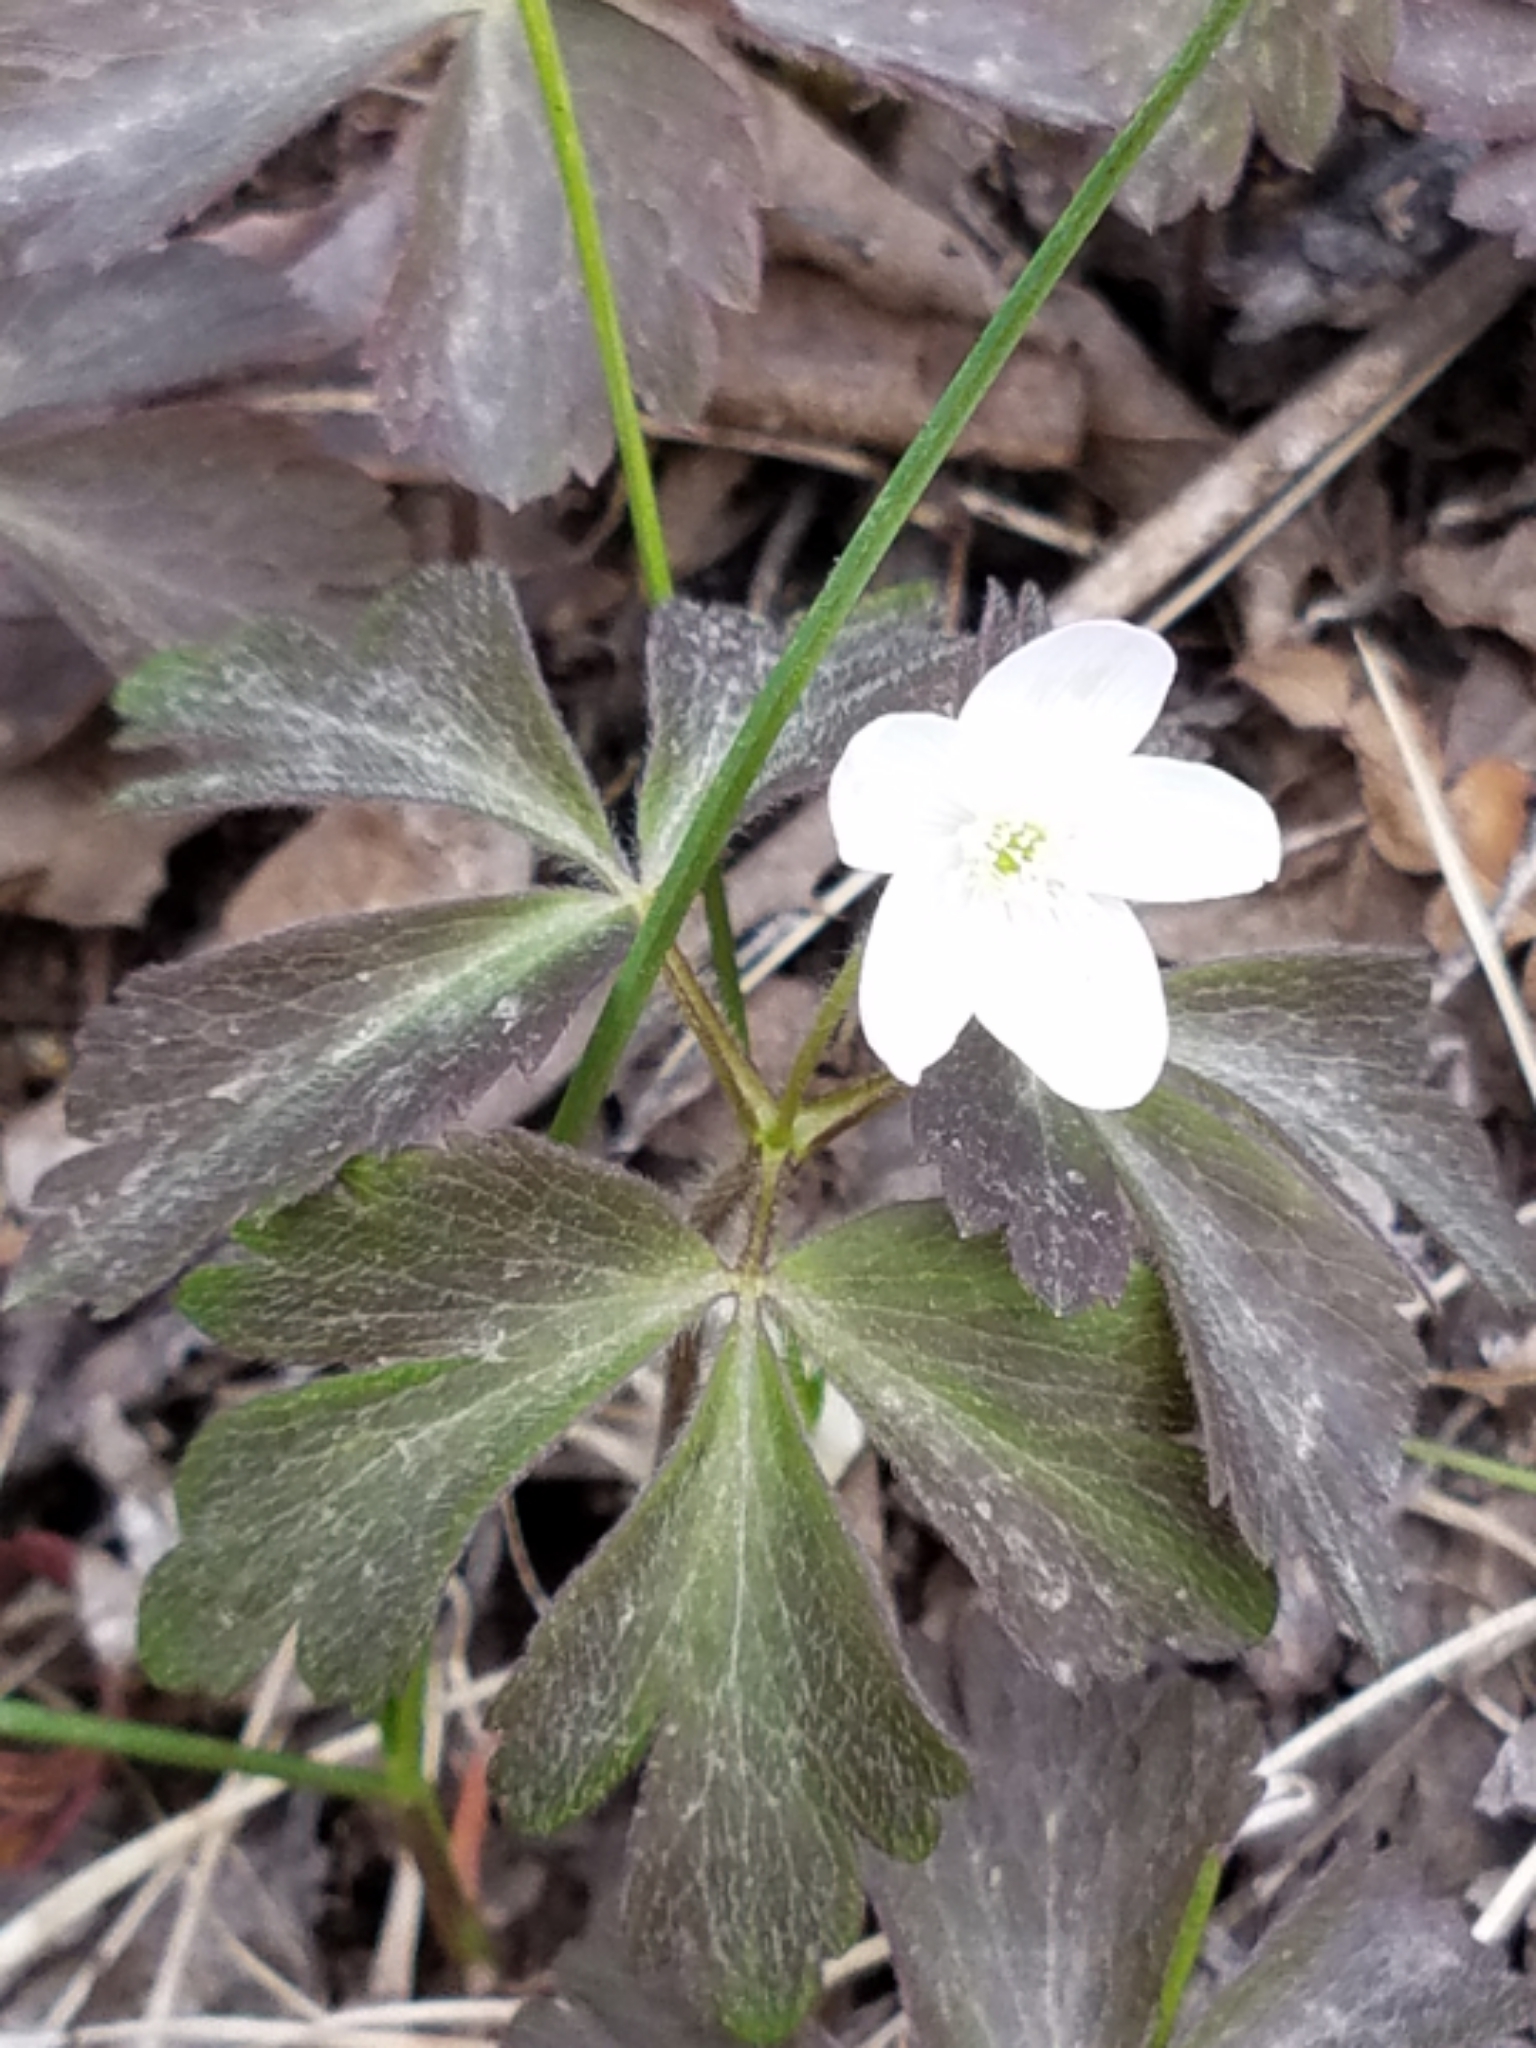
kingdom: Plantae
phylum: Tracheophyta
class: Magnoliopsida
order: Ranunculales
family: Ranunculaceae
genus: Anemone
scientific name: Anemone quinquefolia
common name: Wood anemone
